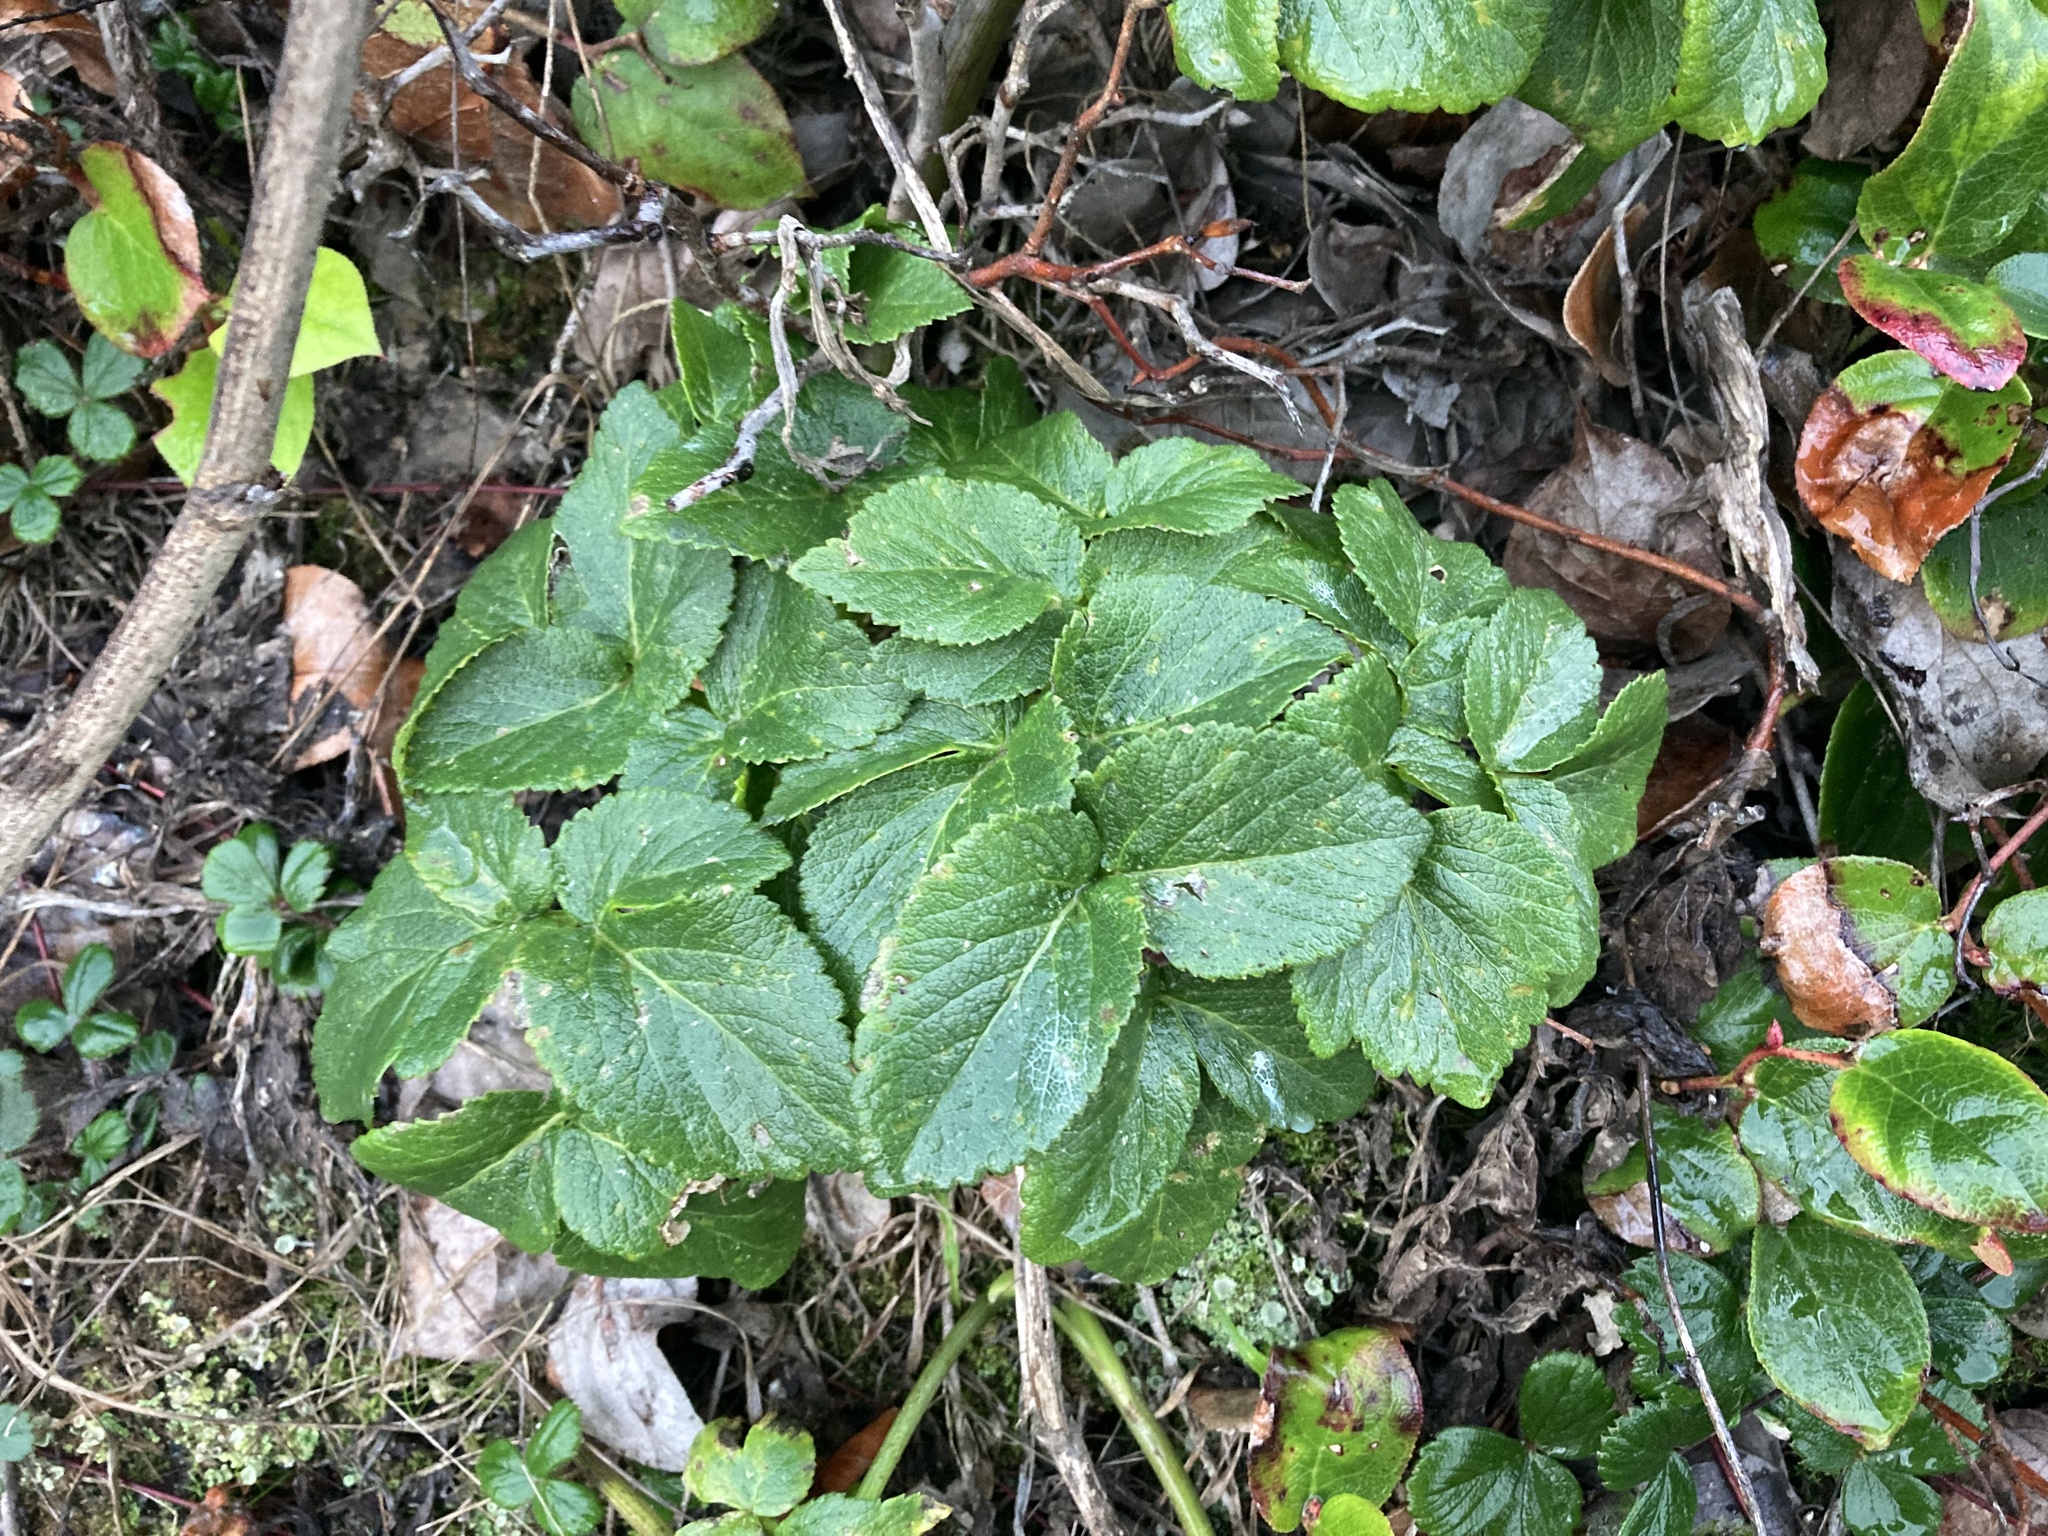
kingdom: Plantae
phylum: Tracheophyta
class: Magnoliopsida
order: Apiales
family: Apiaceae
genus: Angelica
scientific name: Angelica hendersonii
